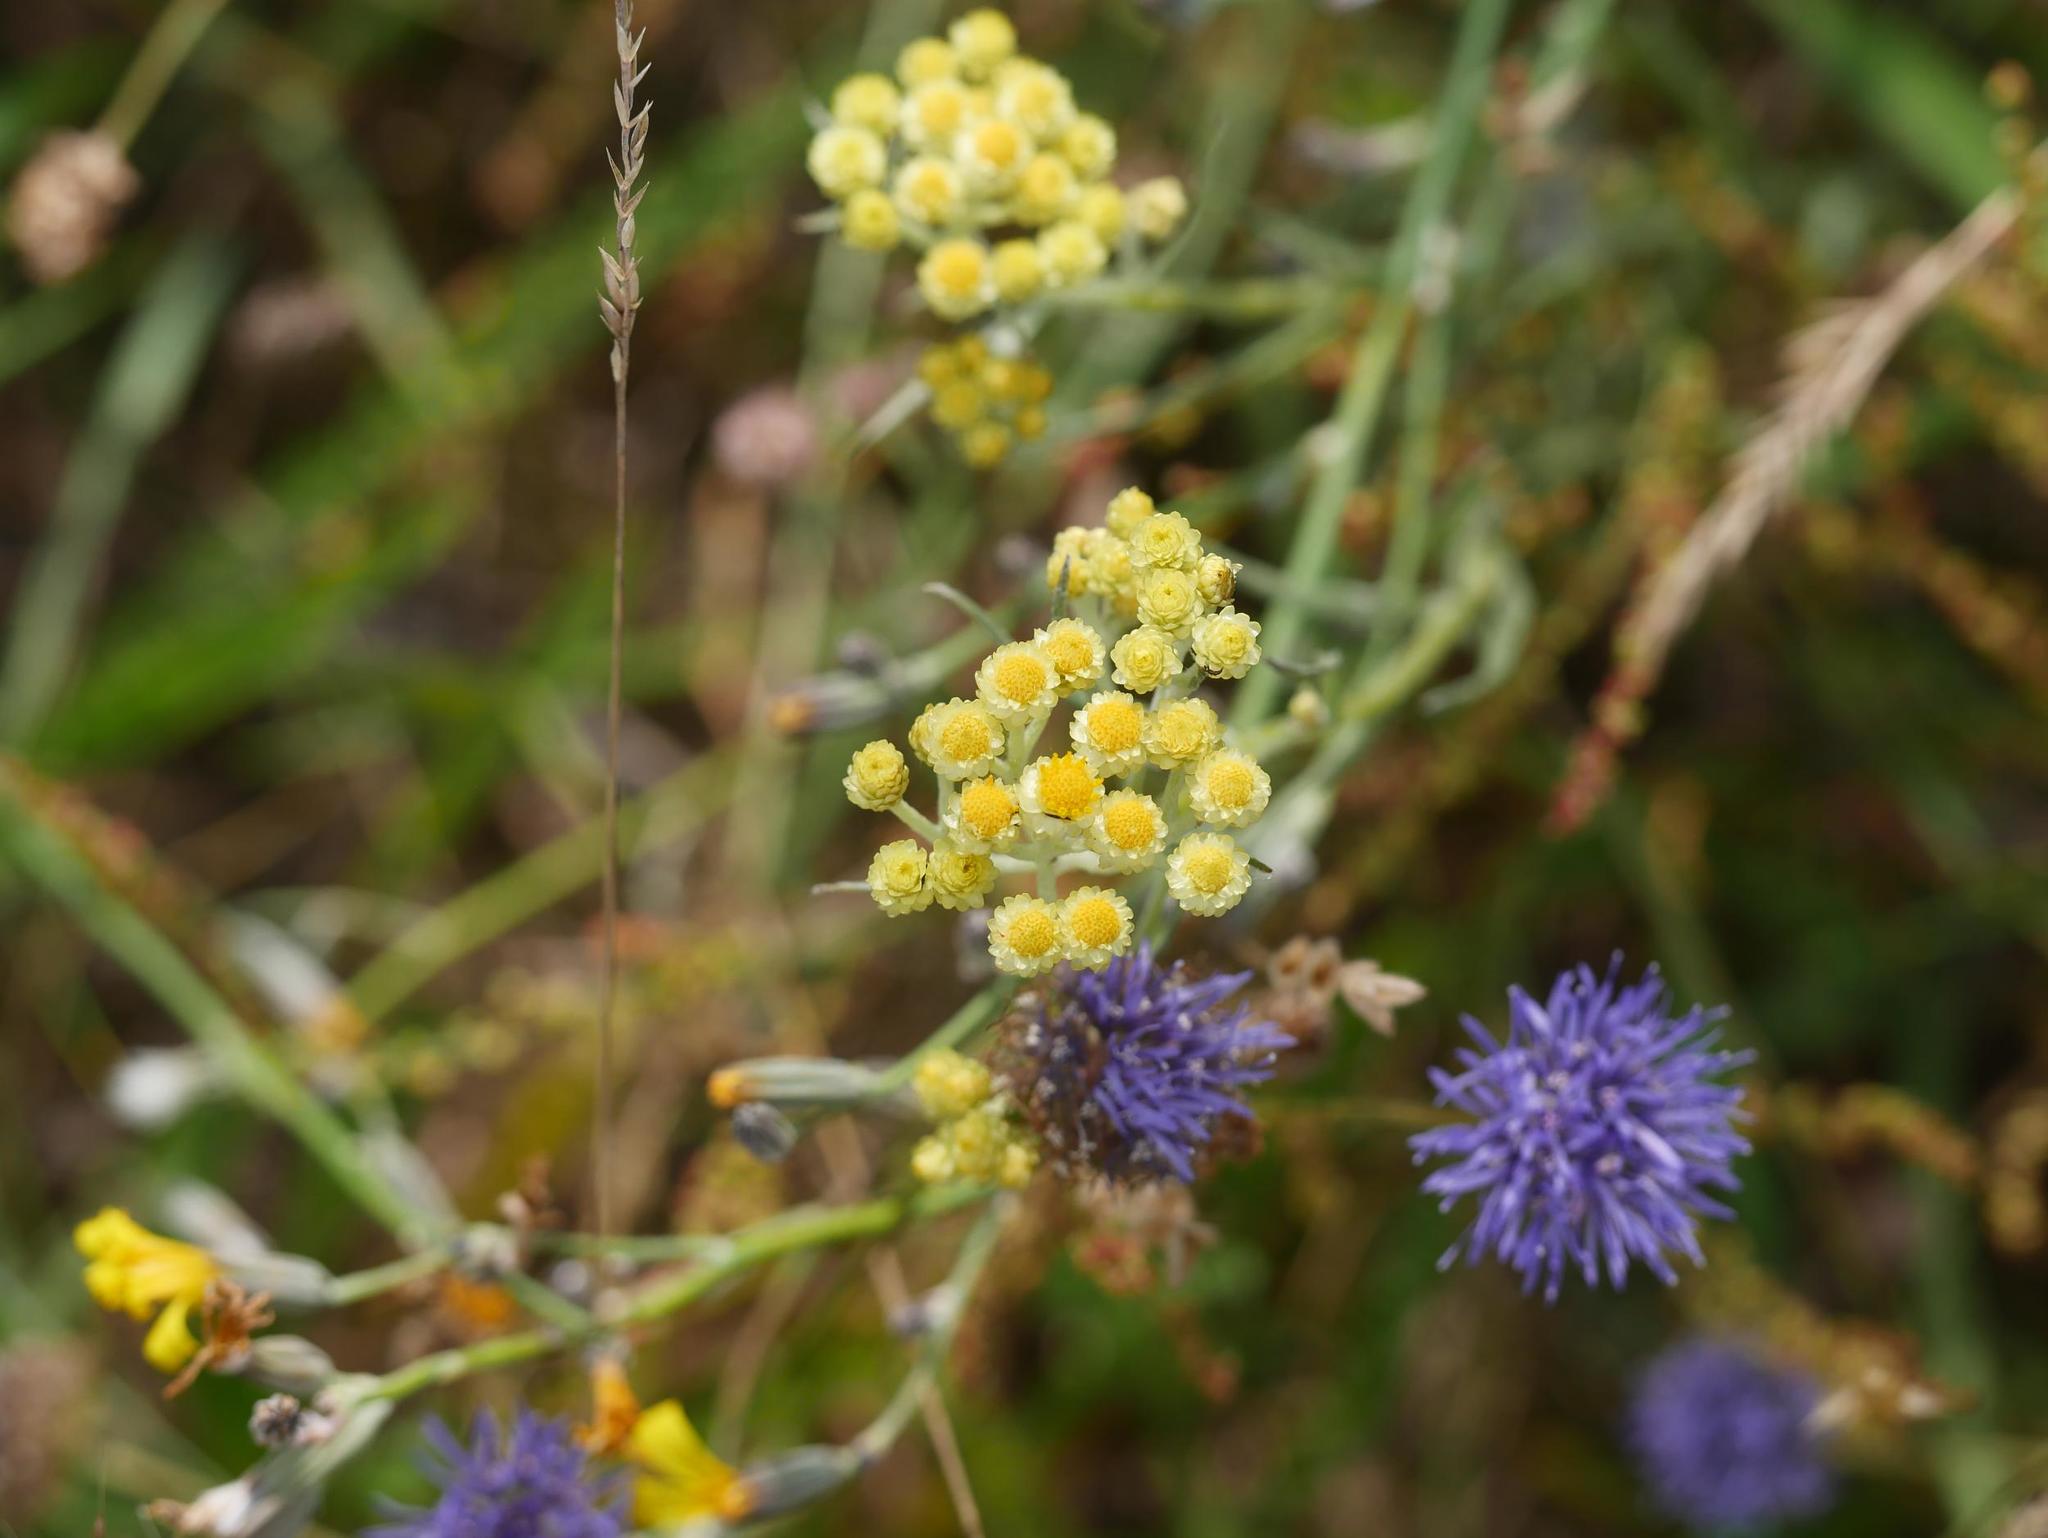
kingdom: Plantae
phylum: Tracheophyta
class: Magnoliopsida
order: Asterales
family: Asteraceae
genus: Helichrysum
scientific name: Helichrysum arenarium
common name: Strawflower
